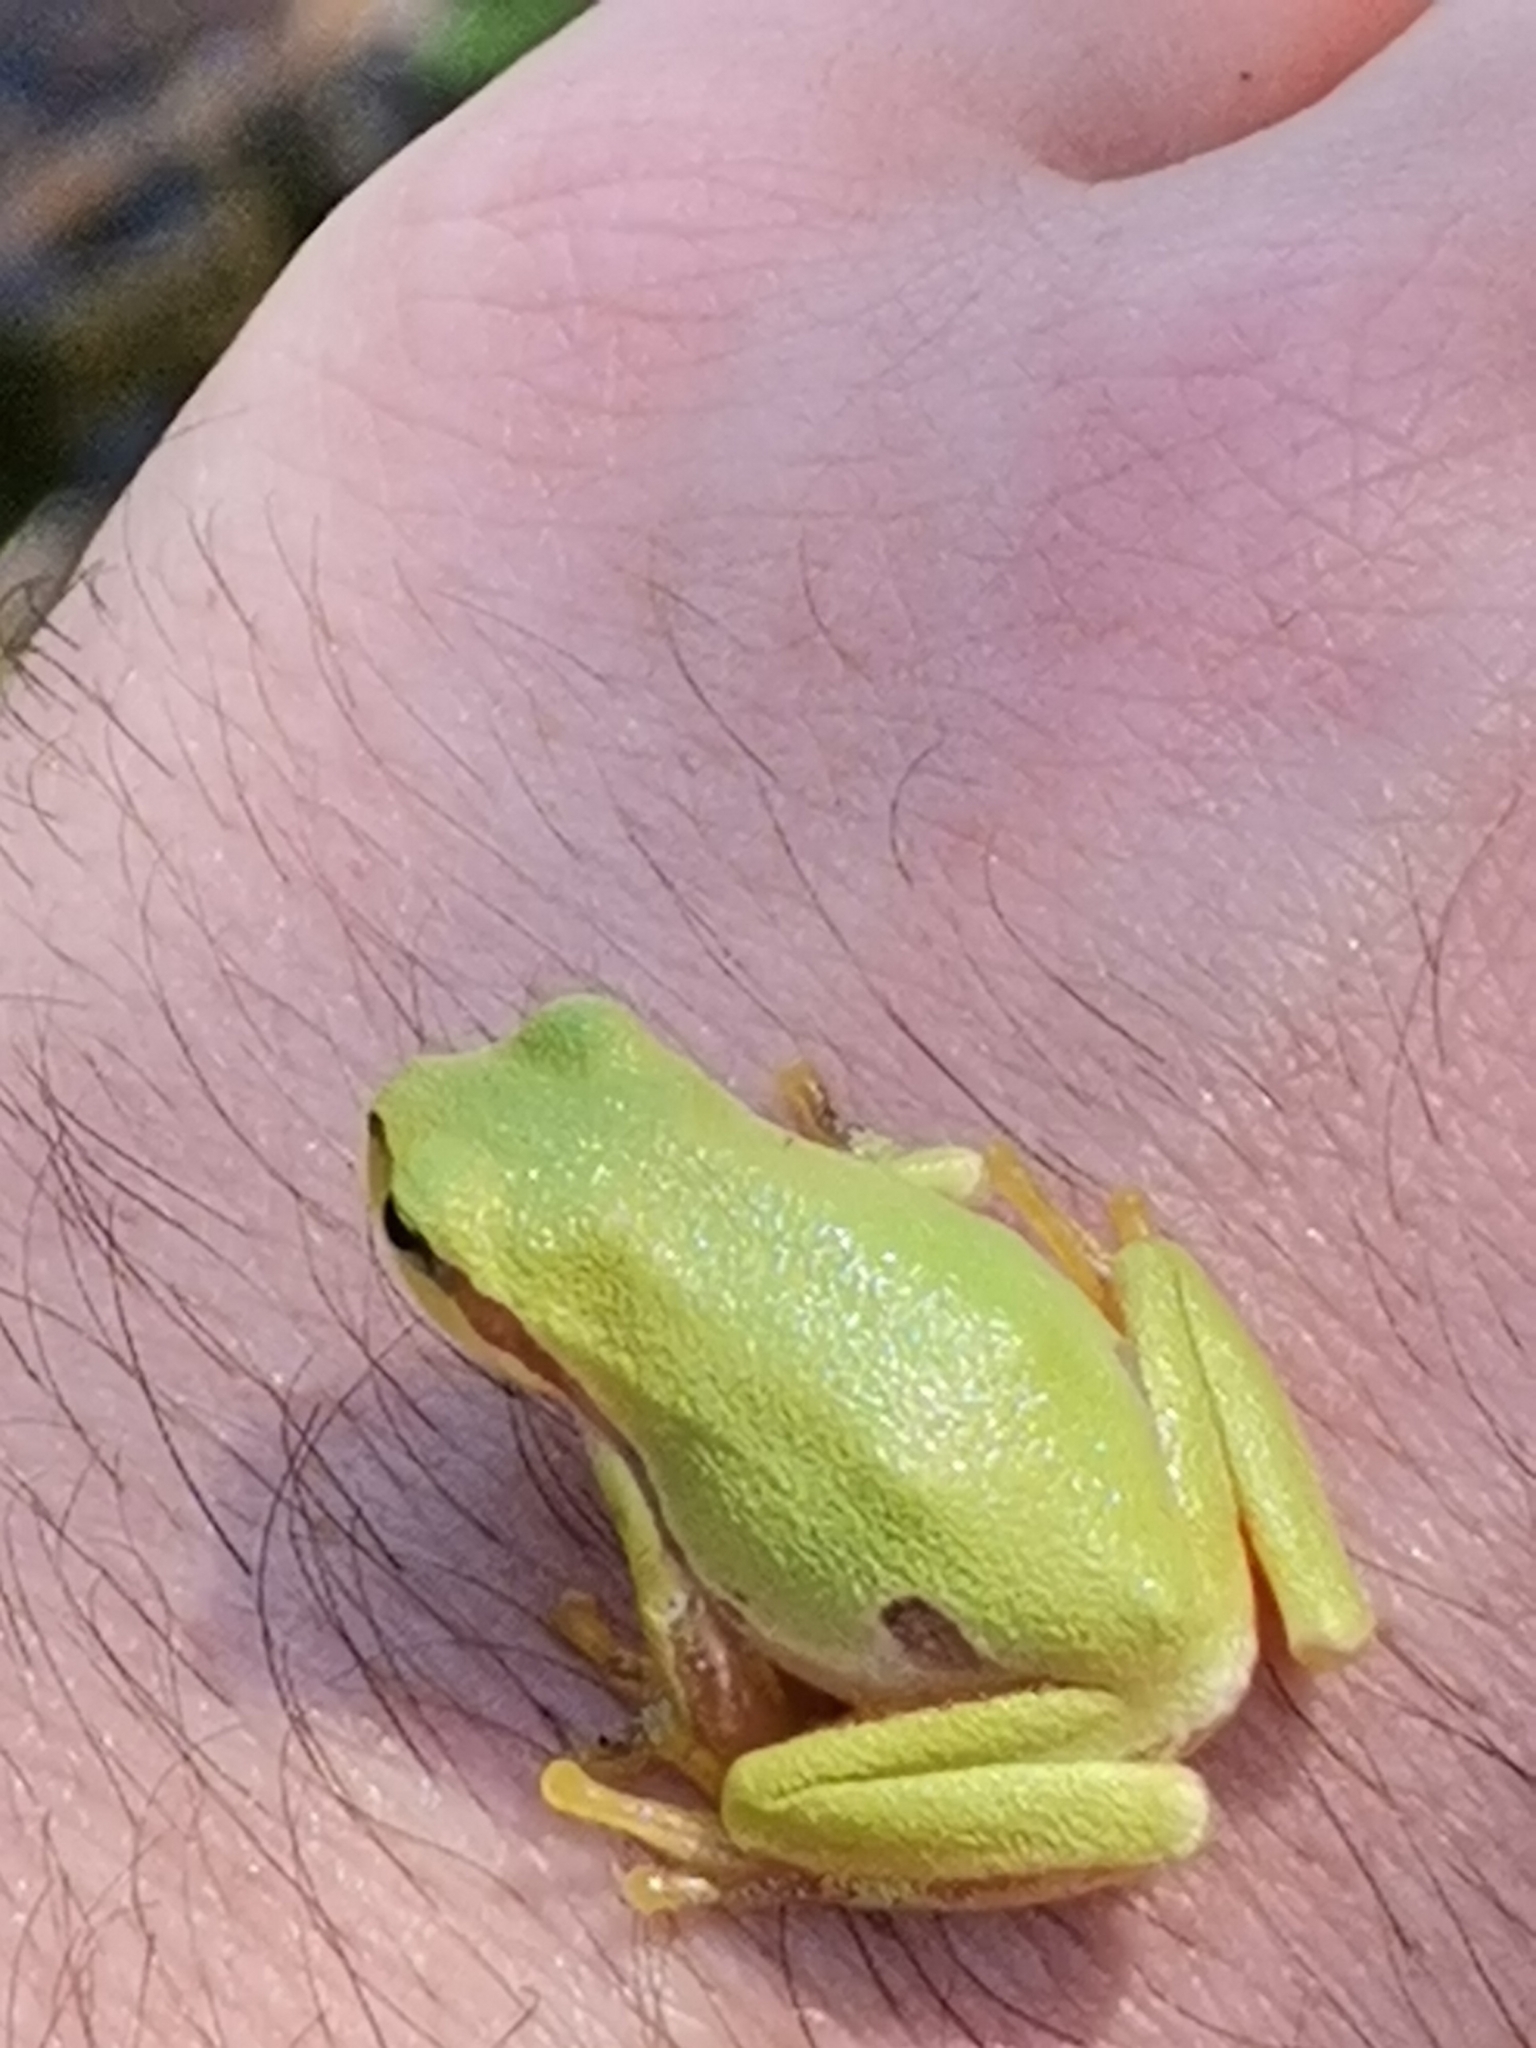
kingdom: Animalia
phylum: Chordata
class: Amphibia
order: Anura
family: Hylidae
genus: Hyla
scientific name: Hyla orientalis
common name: Caucasian treefrog
